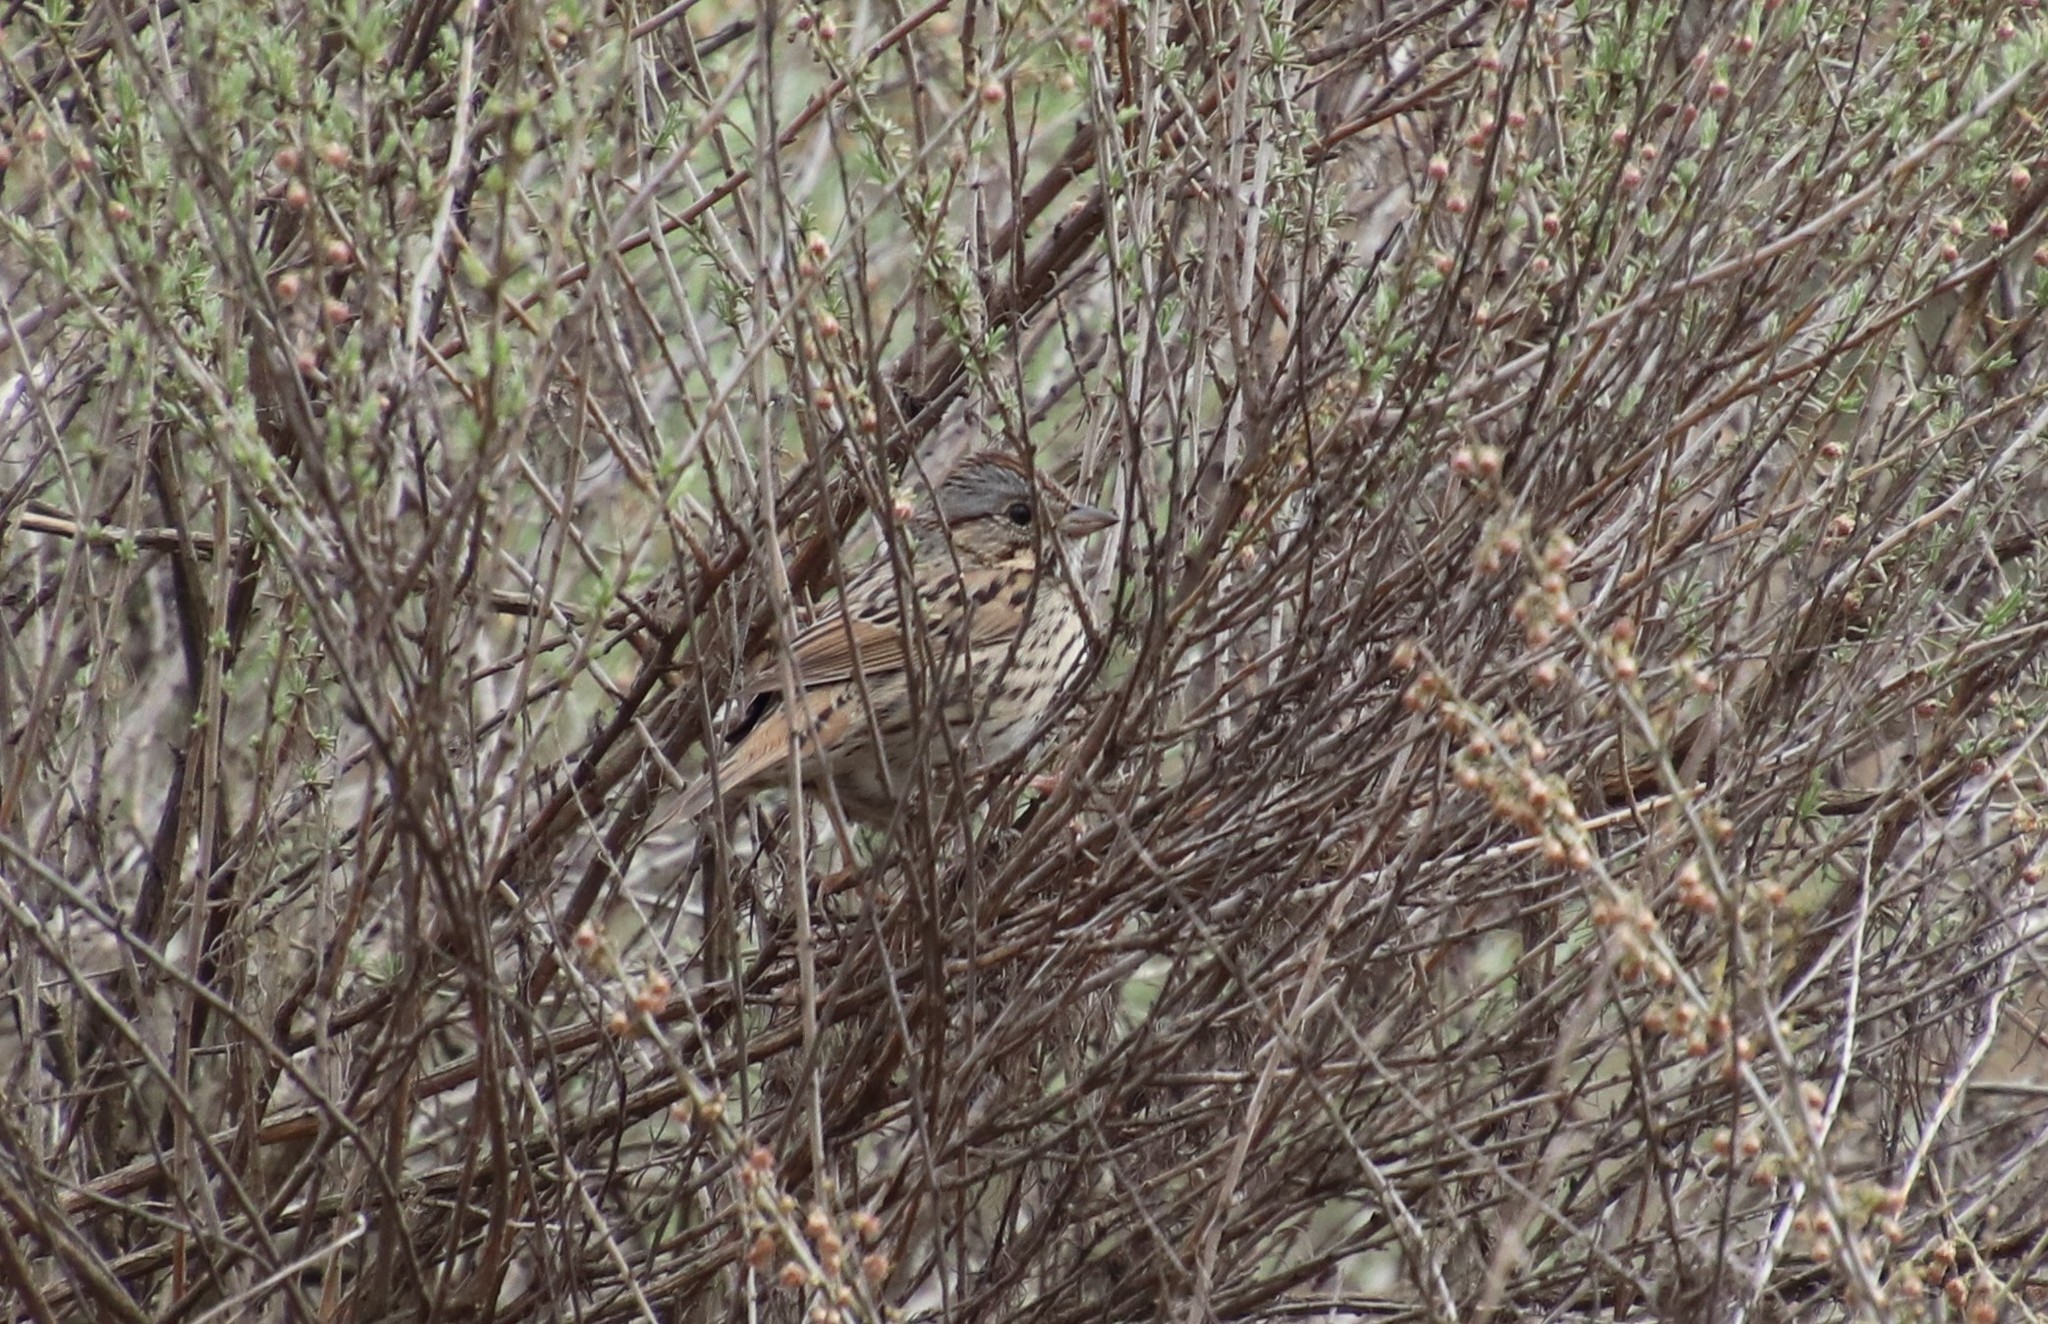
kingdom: Animalia
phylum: Chordata
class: Aves
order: Passeriformes
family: Passerellidae
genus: Melospiza
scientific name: Melospiza lincolnii
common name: Lincoln's sparrow
